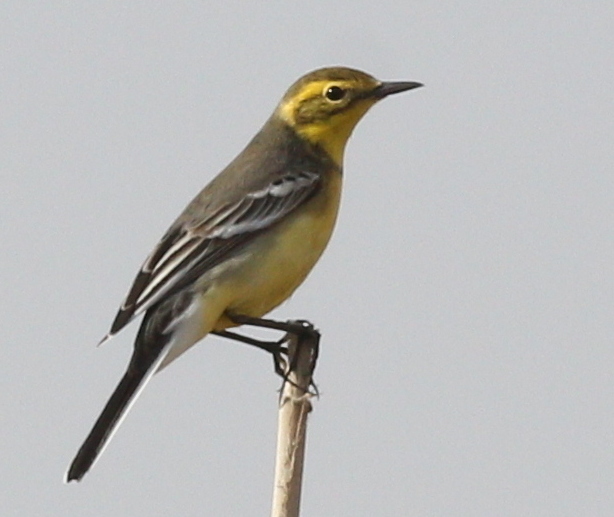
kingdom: Animalia
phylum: Chordata
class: Aves
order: Passeriformes
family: Motacillidae
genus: Motacilla
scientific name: Motacilla citreola
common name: Citrine wagtail
